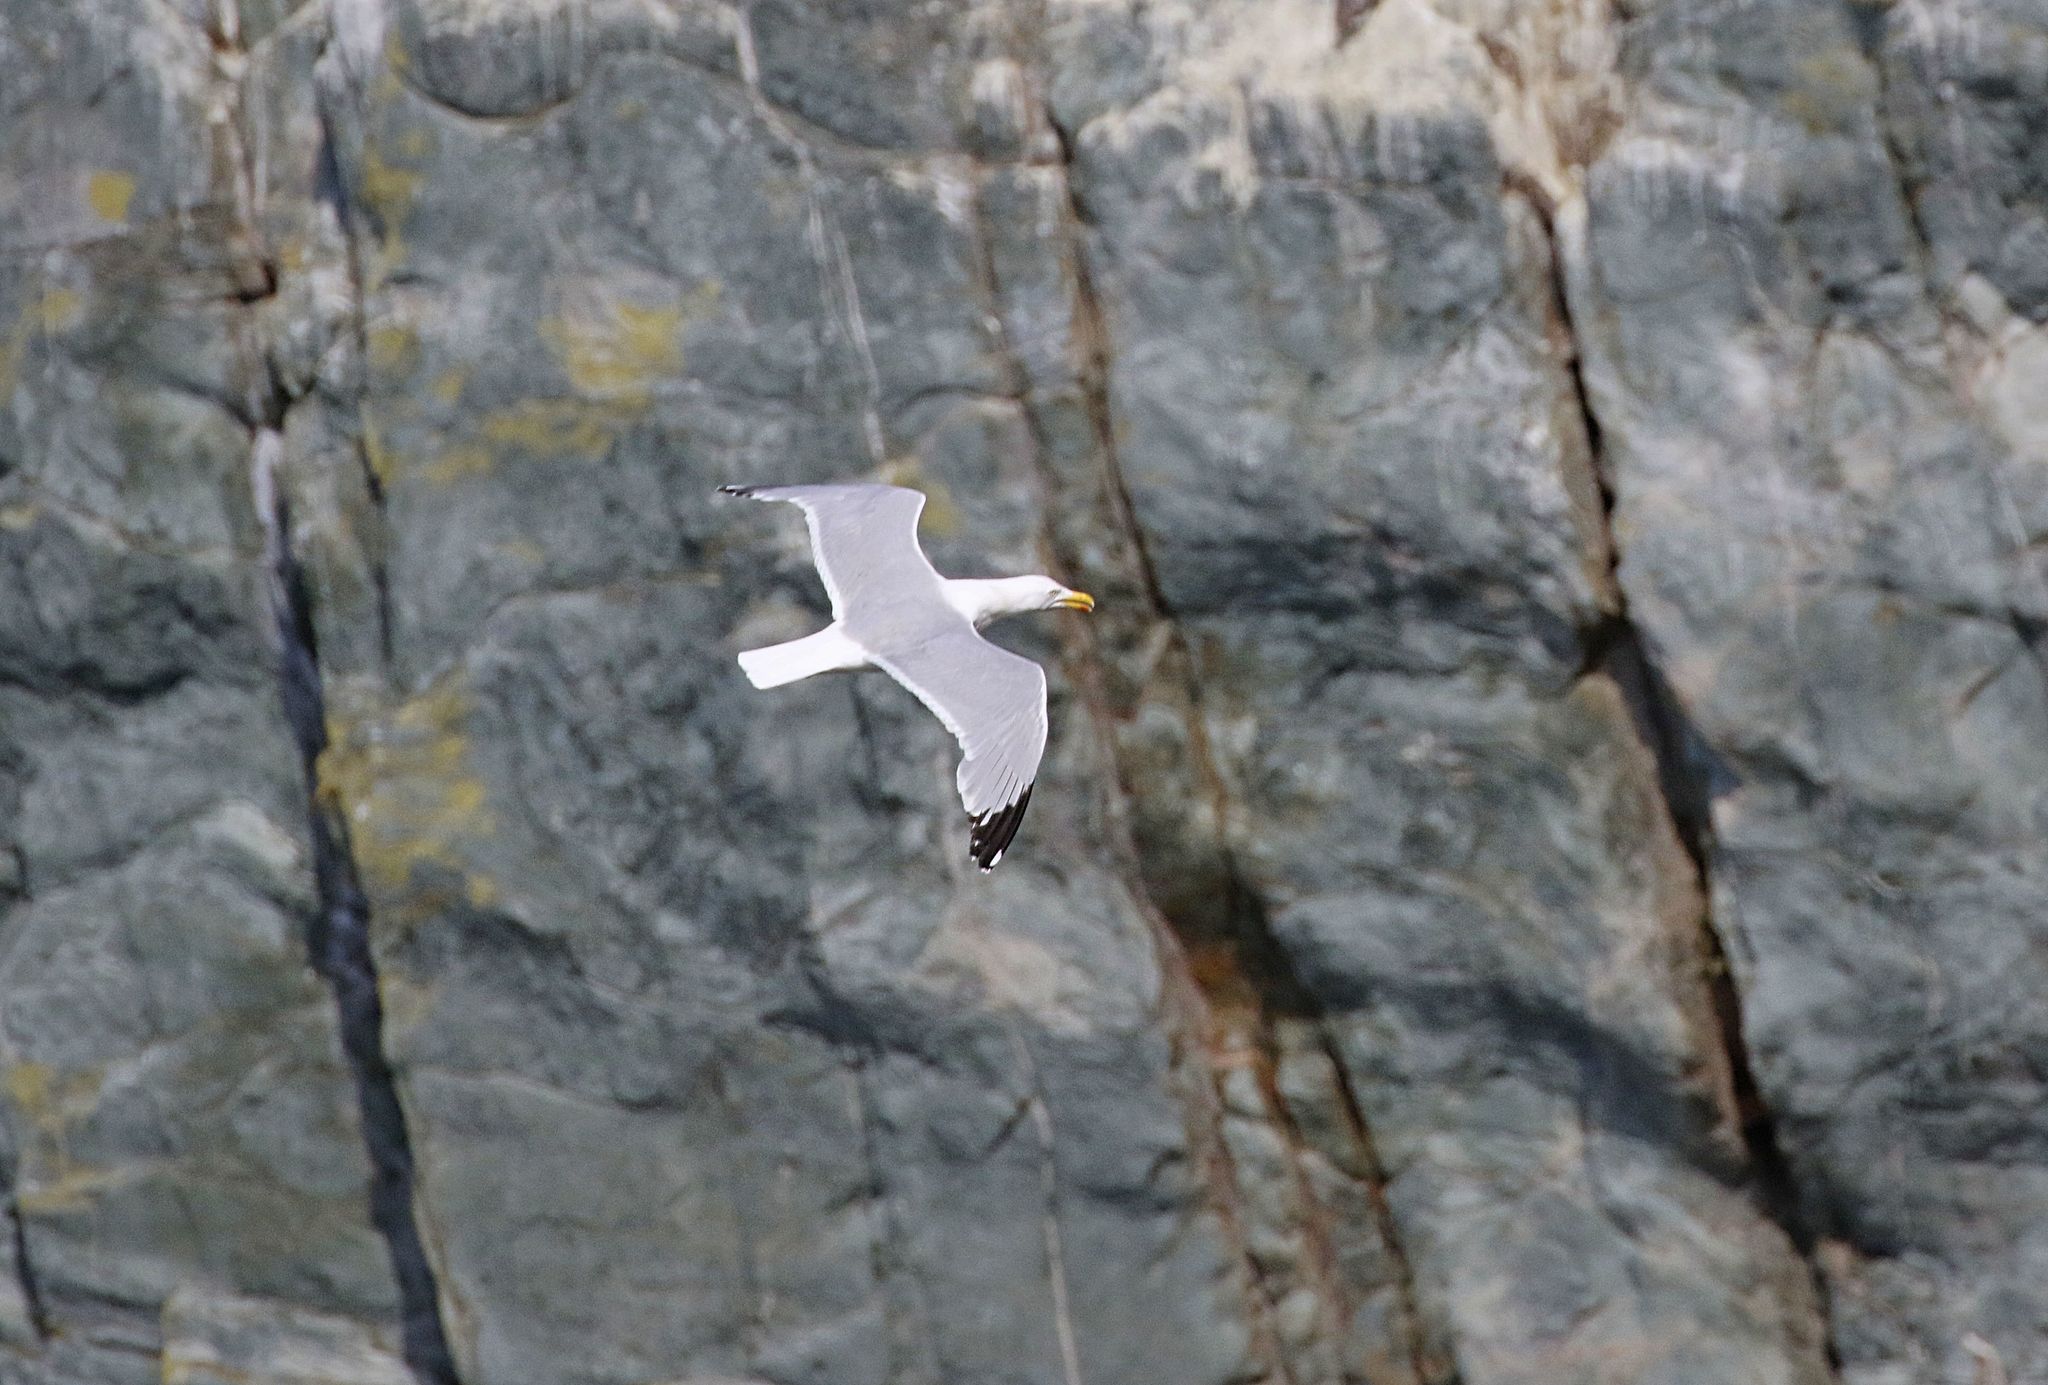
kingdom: Animalia
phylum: Chordata
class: Aves
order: Charadriiformes
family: Laridae
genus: Larus
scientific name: Larus argentatus
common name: Herring gull
